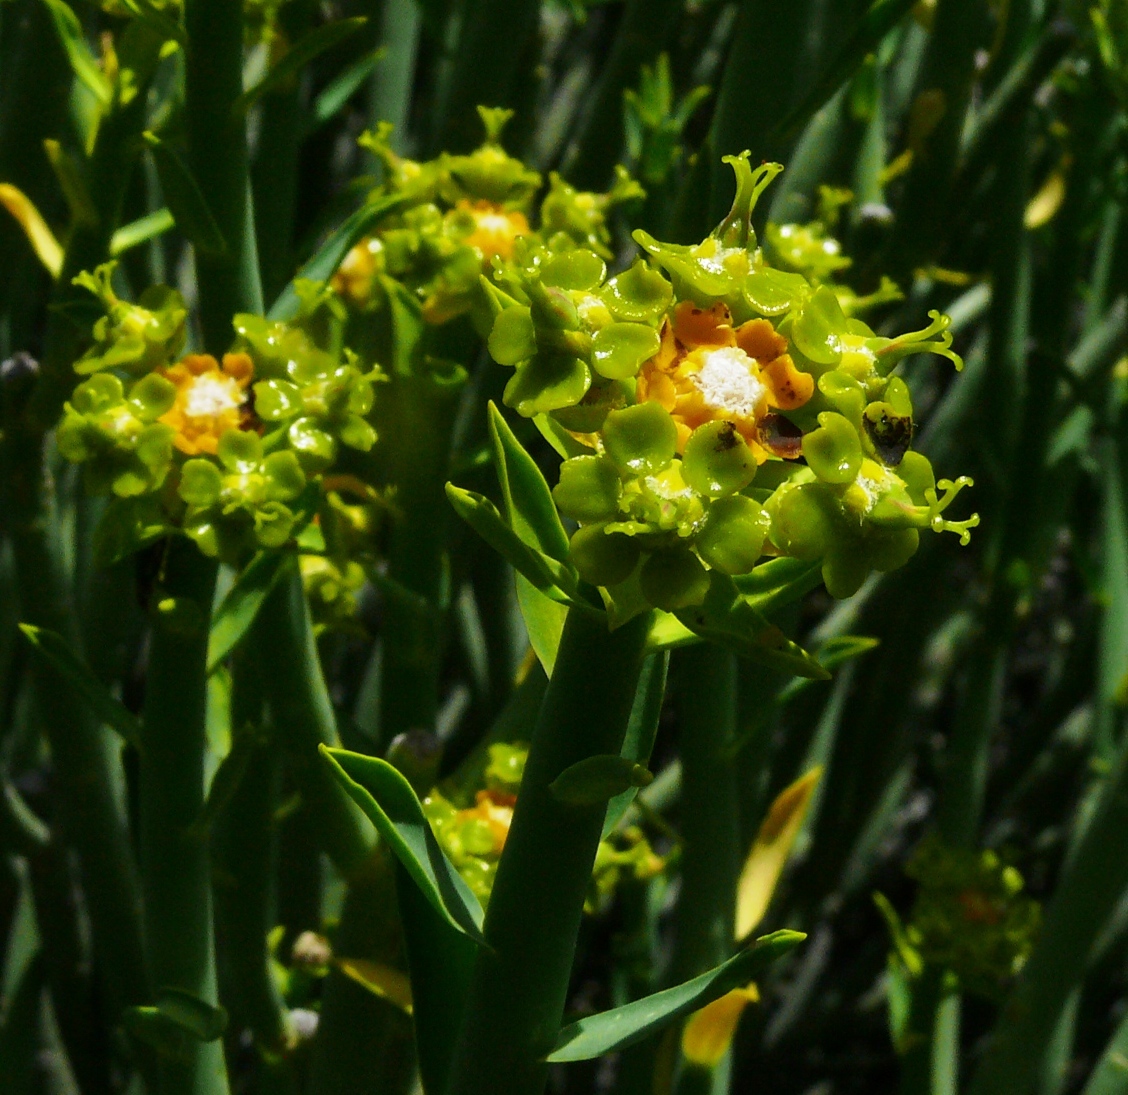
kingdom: Plantae
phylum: Tracheophyta
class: Magnoliopsida
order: Malpighiales
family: Euphorbiaceae
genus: Euphorbia
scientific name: Euphorbia mauritanica
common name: Jackal's-food
